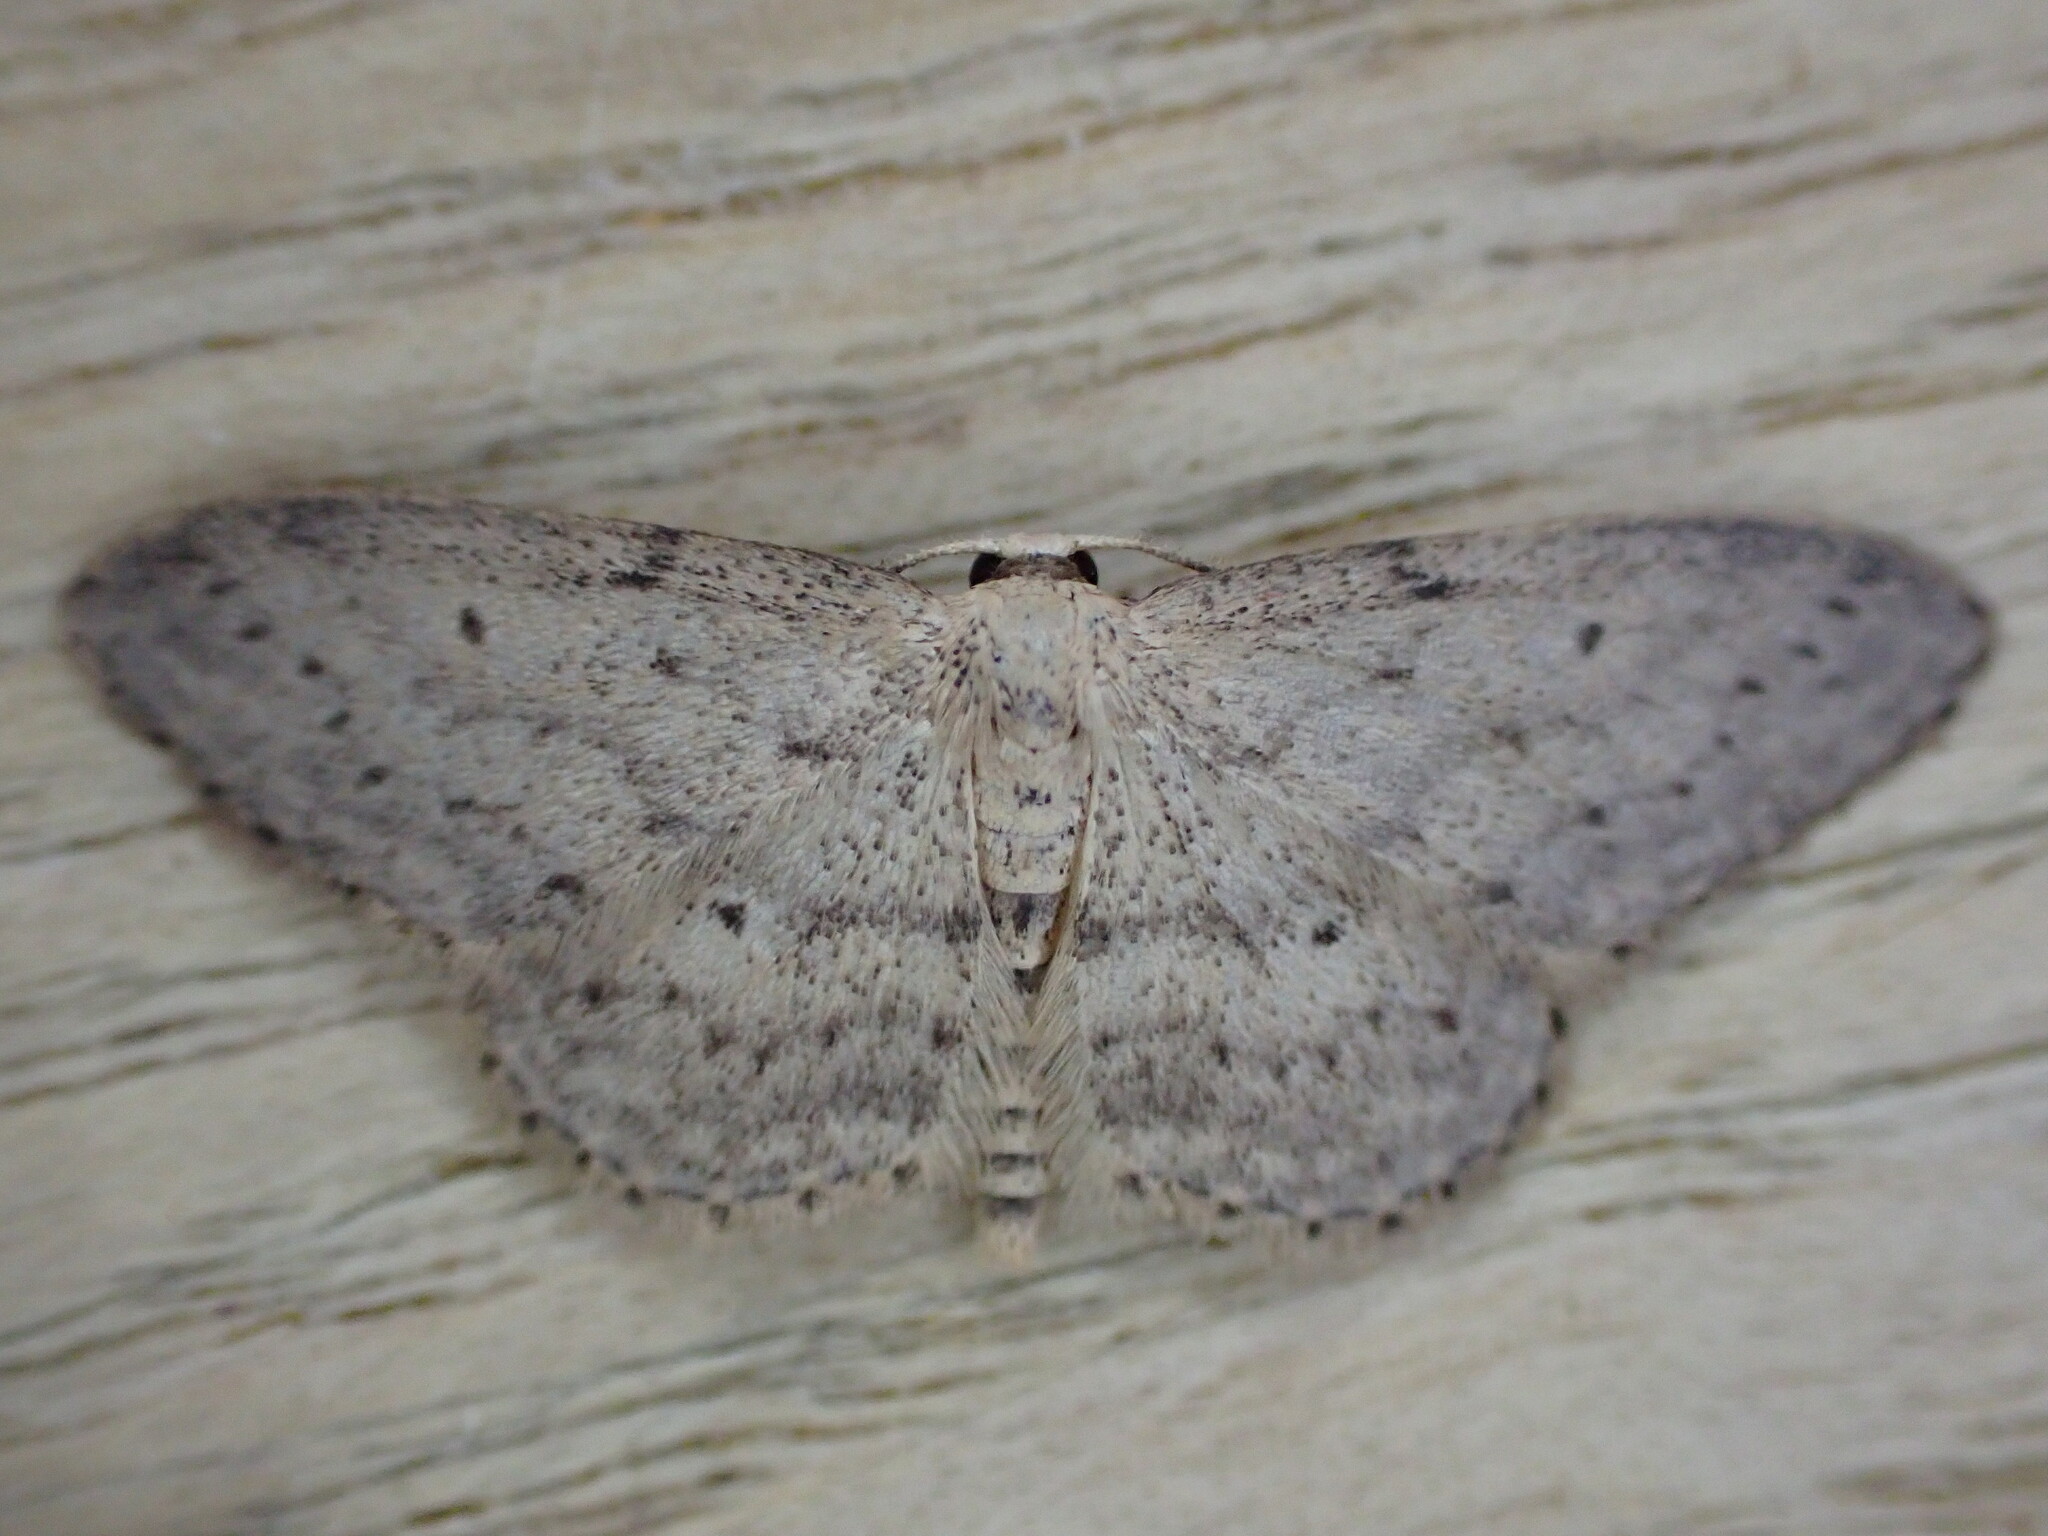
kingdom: Animalia
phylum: Arthropoda
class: Insecta
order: Lepidoptera
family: Geometridae
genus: Idaea
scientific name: Idaea seriata
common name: Small dusty wave
